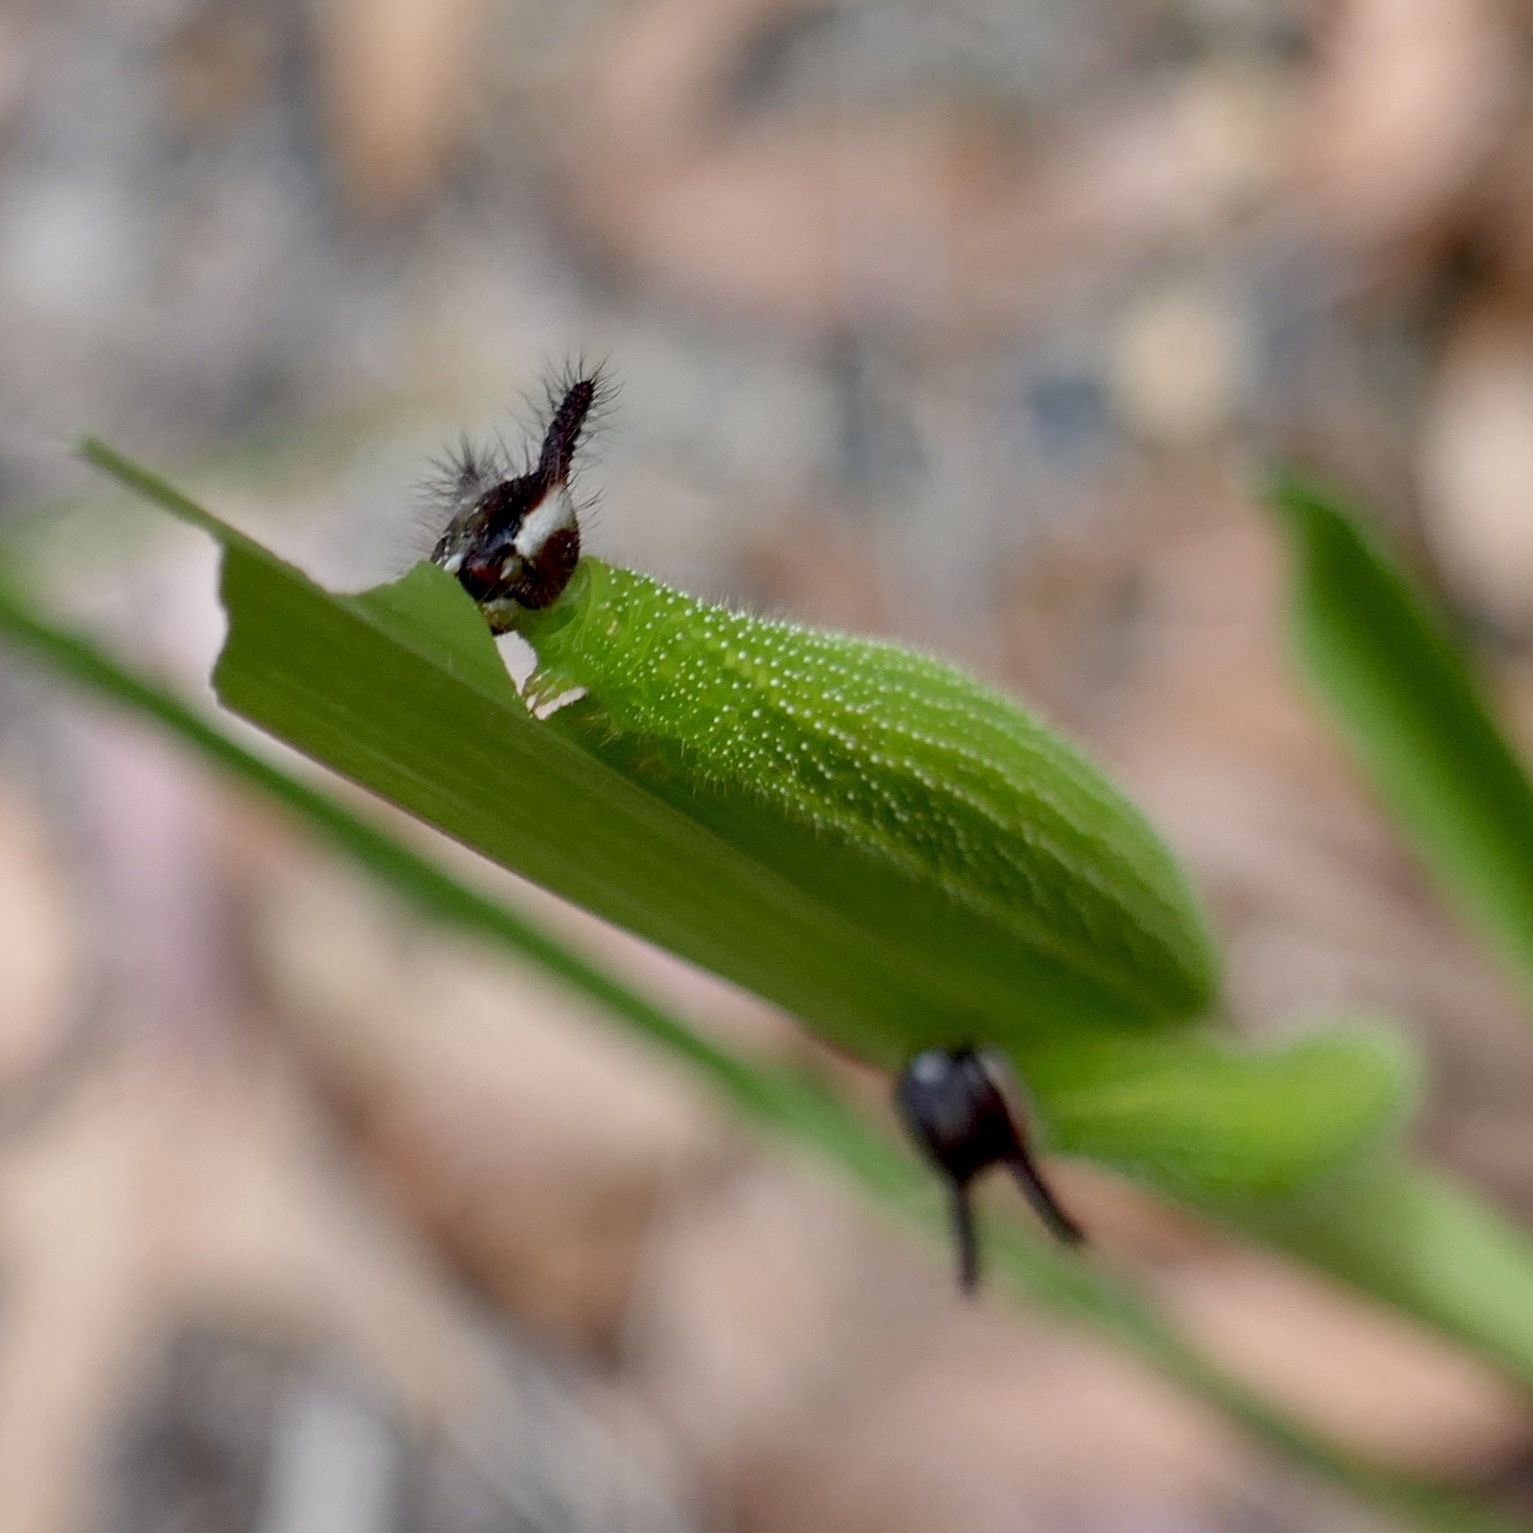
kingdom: Animalia
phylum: Arthropoda
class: Insecta
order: Lepidoptera
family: Nymphalidae
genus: Melanitis
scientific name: Melanitis leda
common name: Twilight brown
